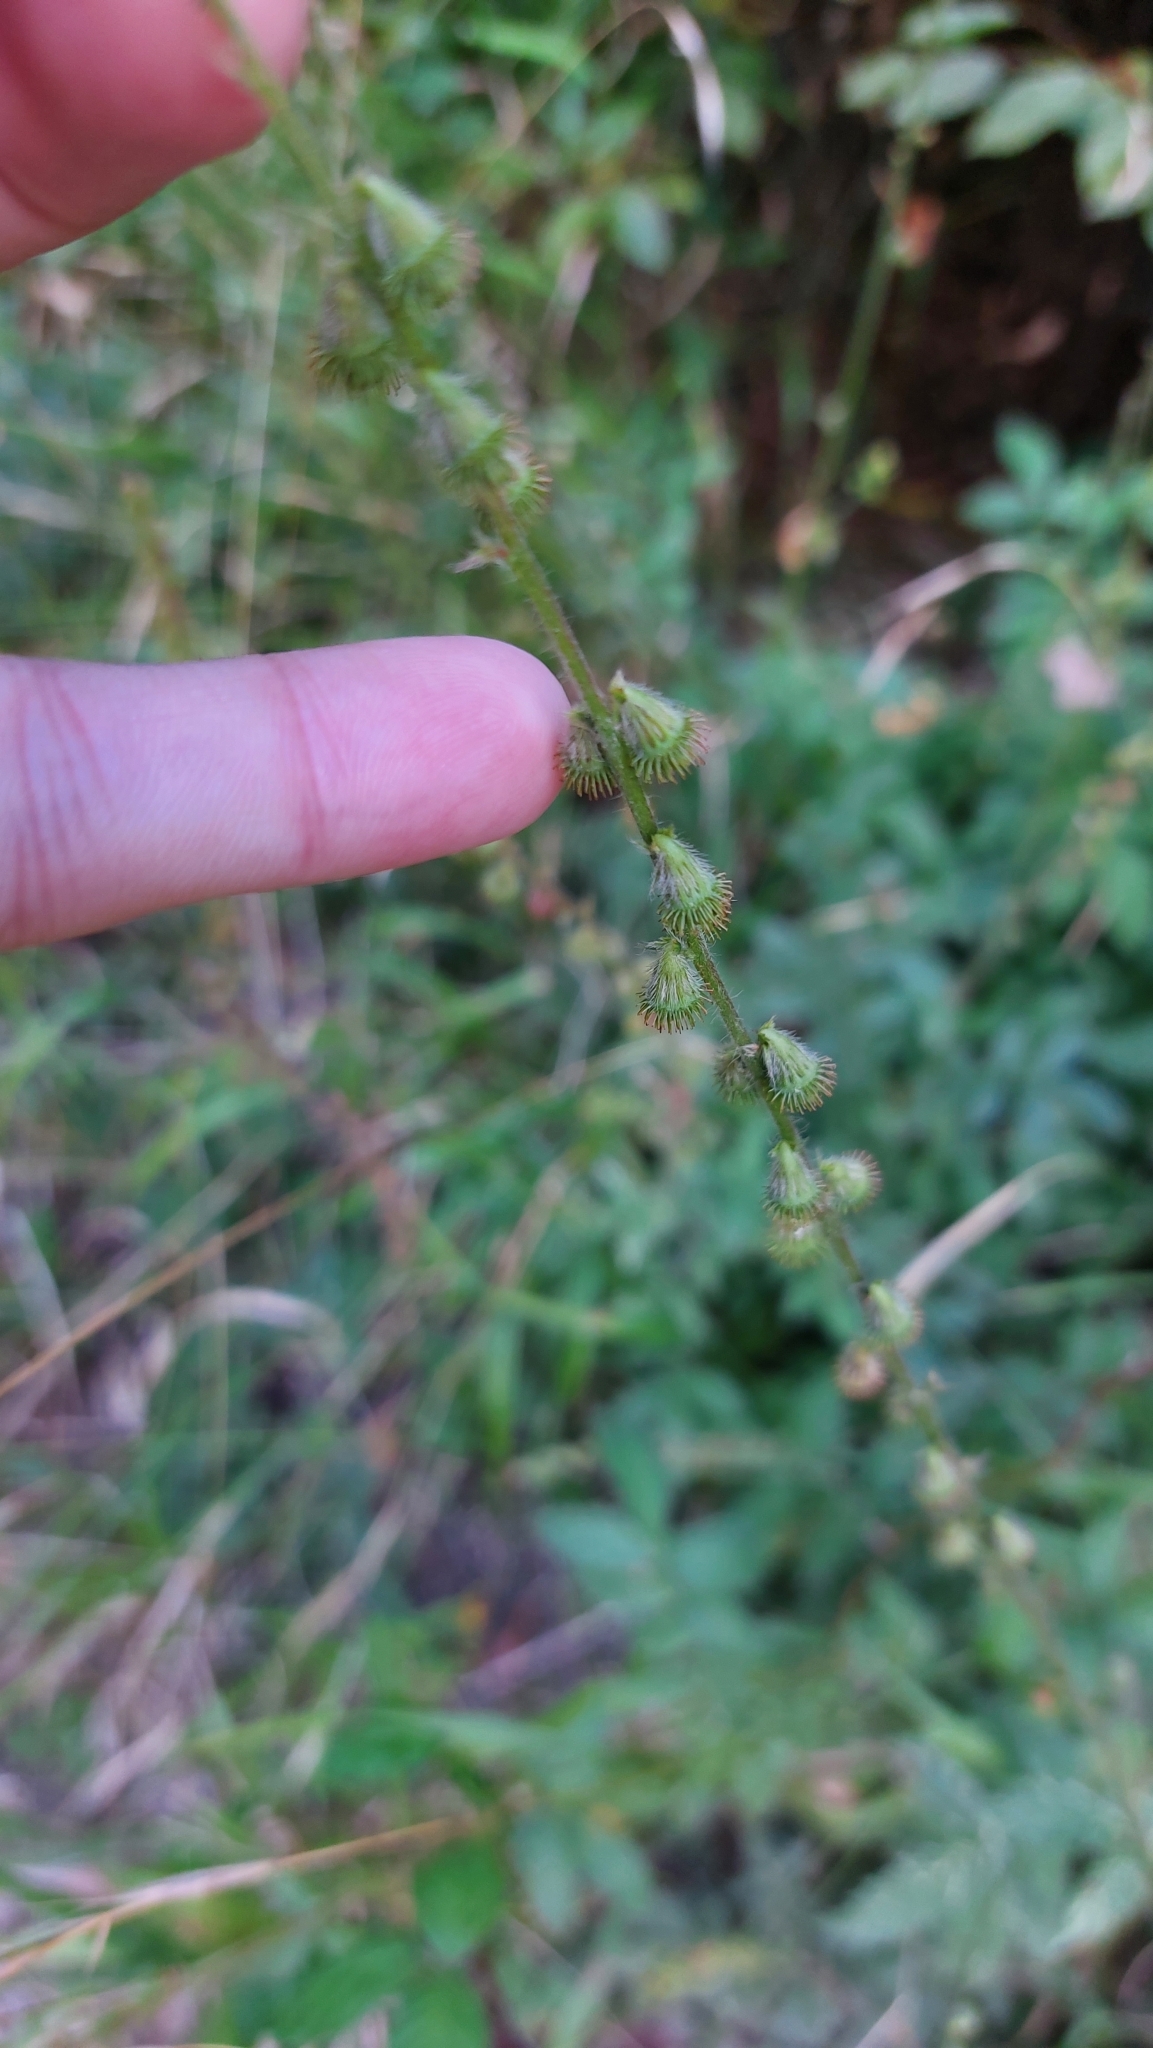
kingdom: Plantae
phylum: Tracheophyta
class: Magnoliopsida
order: Rosales
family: Rosaceae
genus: Agrimonia
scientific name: Agrimonia eupatoria
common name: Agrimony
